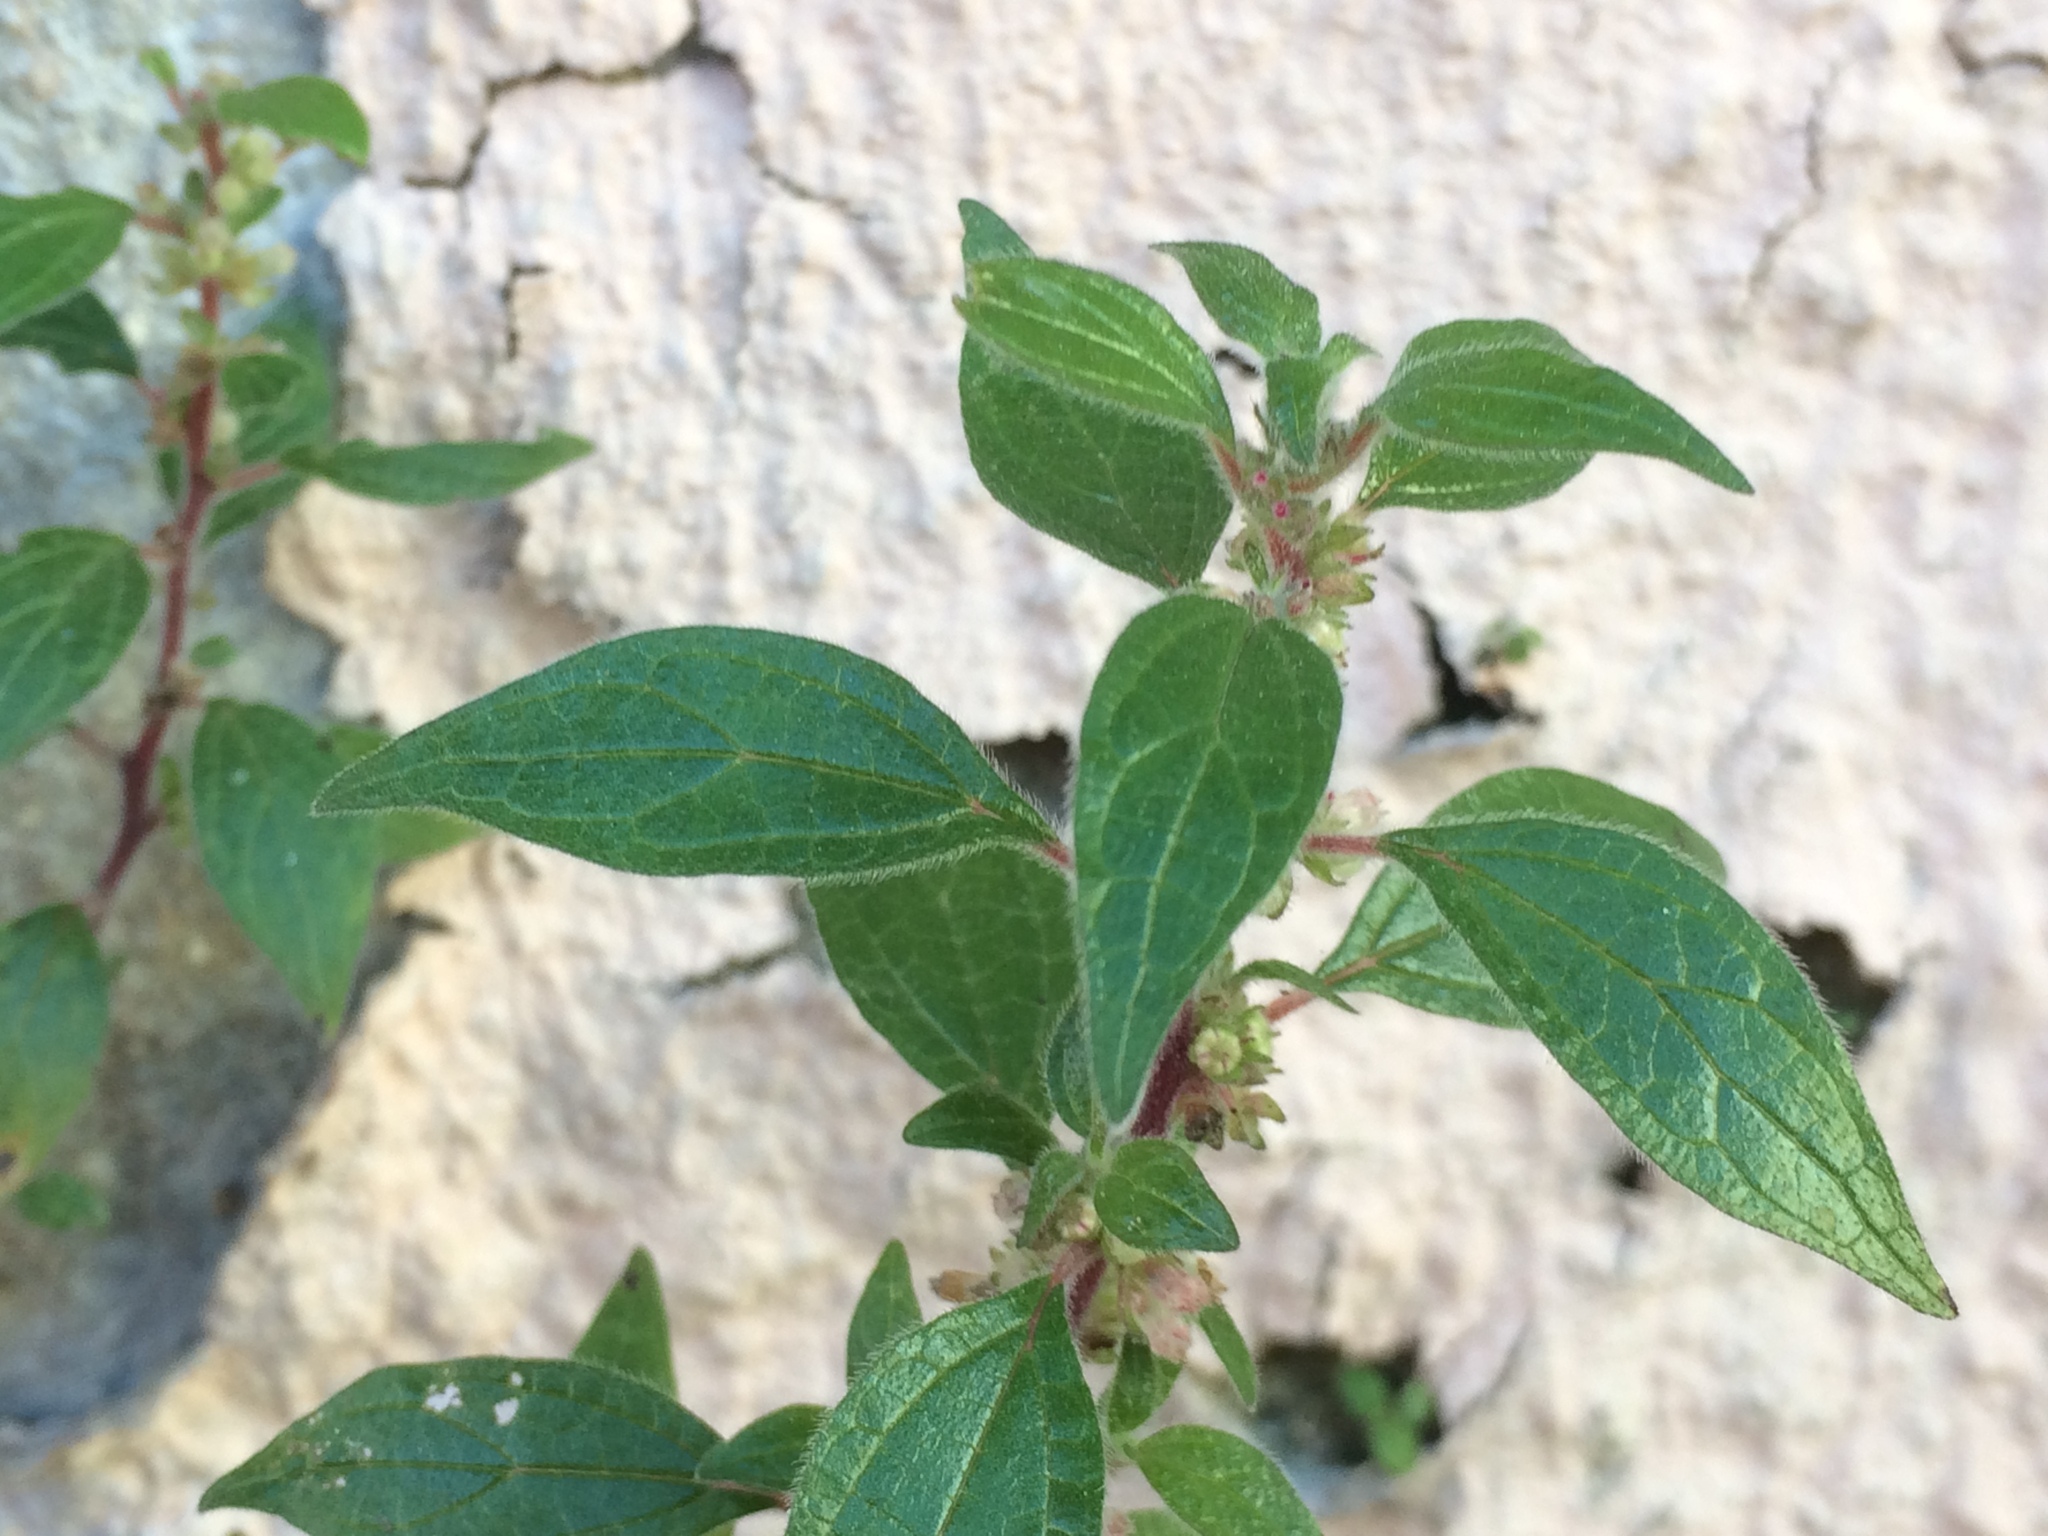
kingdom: Plantae
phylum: Tracheophyta
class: Magnoliopsida
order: Rosales
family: Urticaceae
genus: Parietaria
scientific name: Parietaria judaica
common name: Pellitory-of-the-wall
